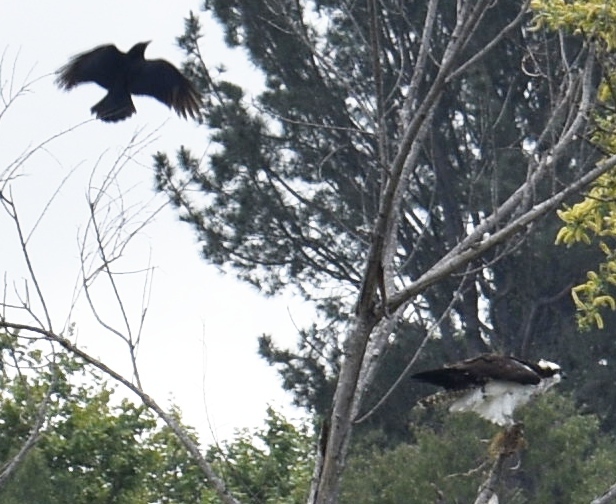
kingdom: Animalia
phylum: Chordata
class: Aves
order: Accipitriformes
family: Pandionidae
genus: Pandion
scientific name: Pandion haliaetus
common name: Osprey
